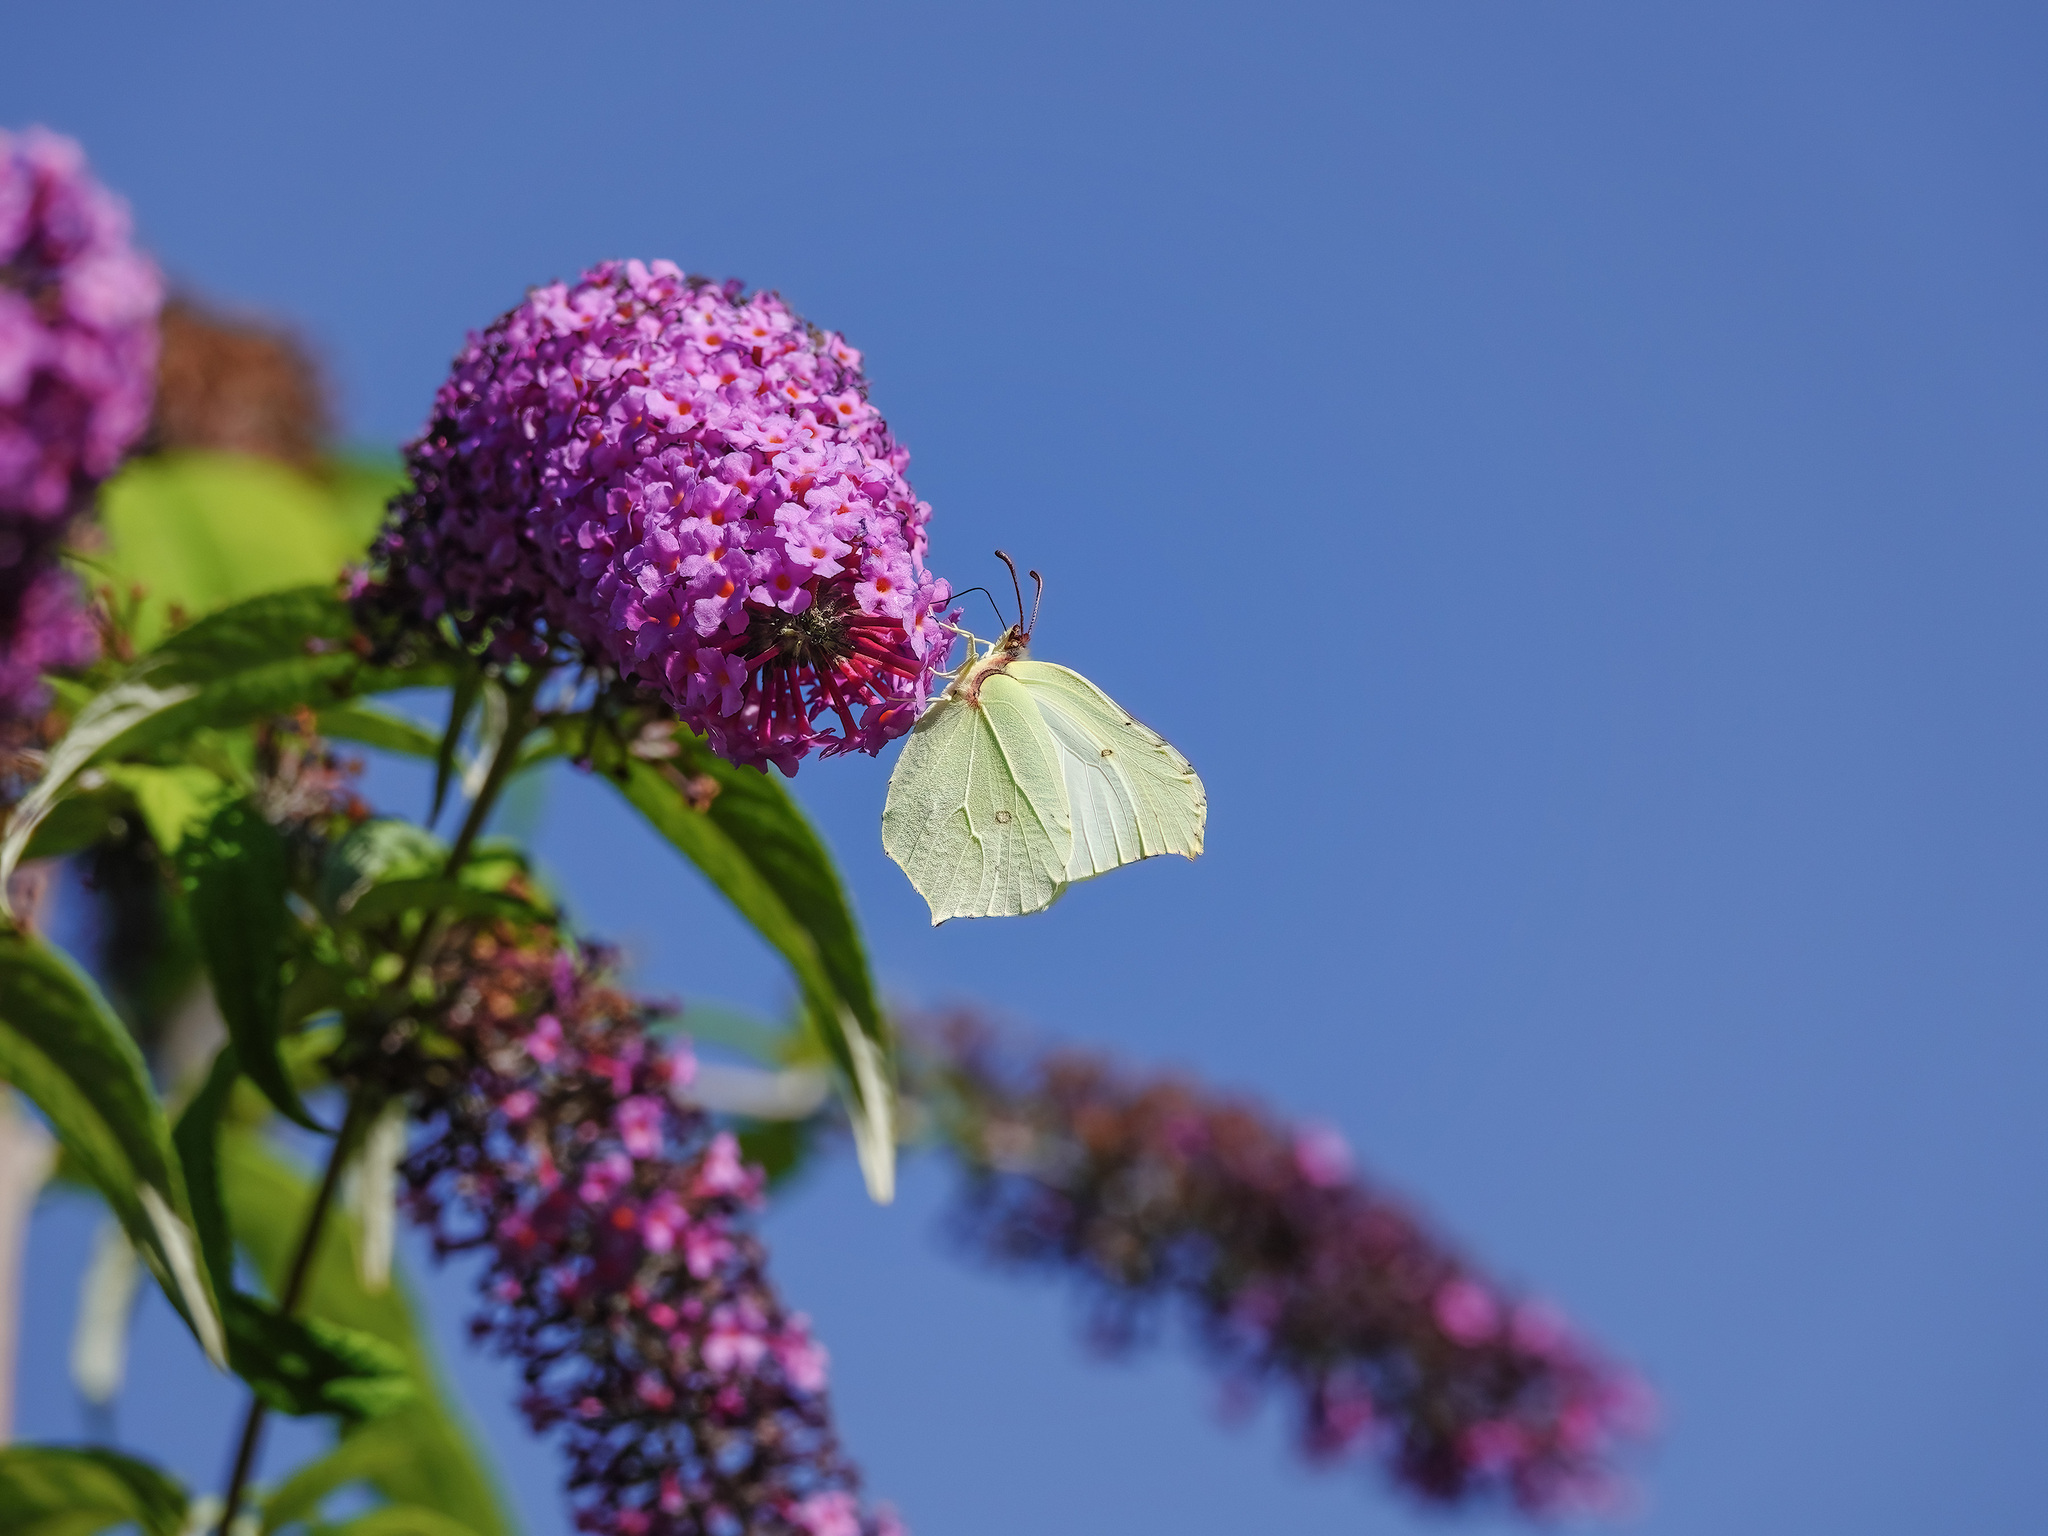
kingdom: Animalia
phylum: Arthropoda
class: Insecta
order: Lepidoptera
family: Pieridae
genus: Gonepteryx
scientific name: Gonepteryx rhamni
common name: Brimstone
